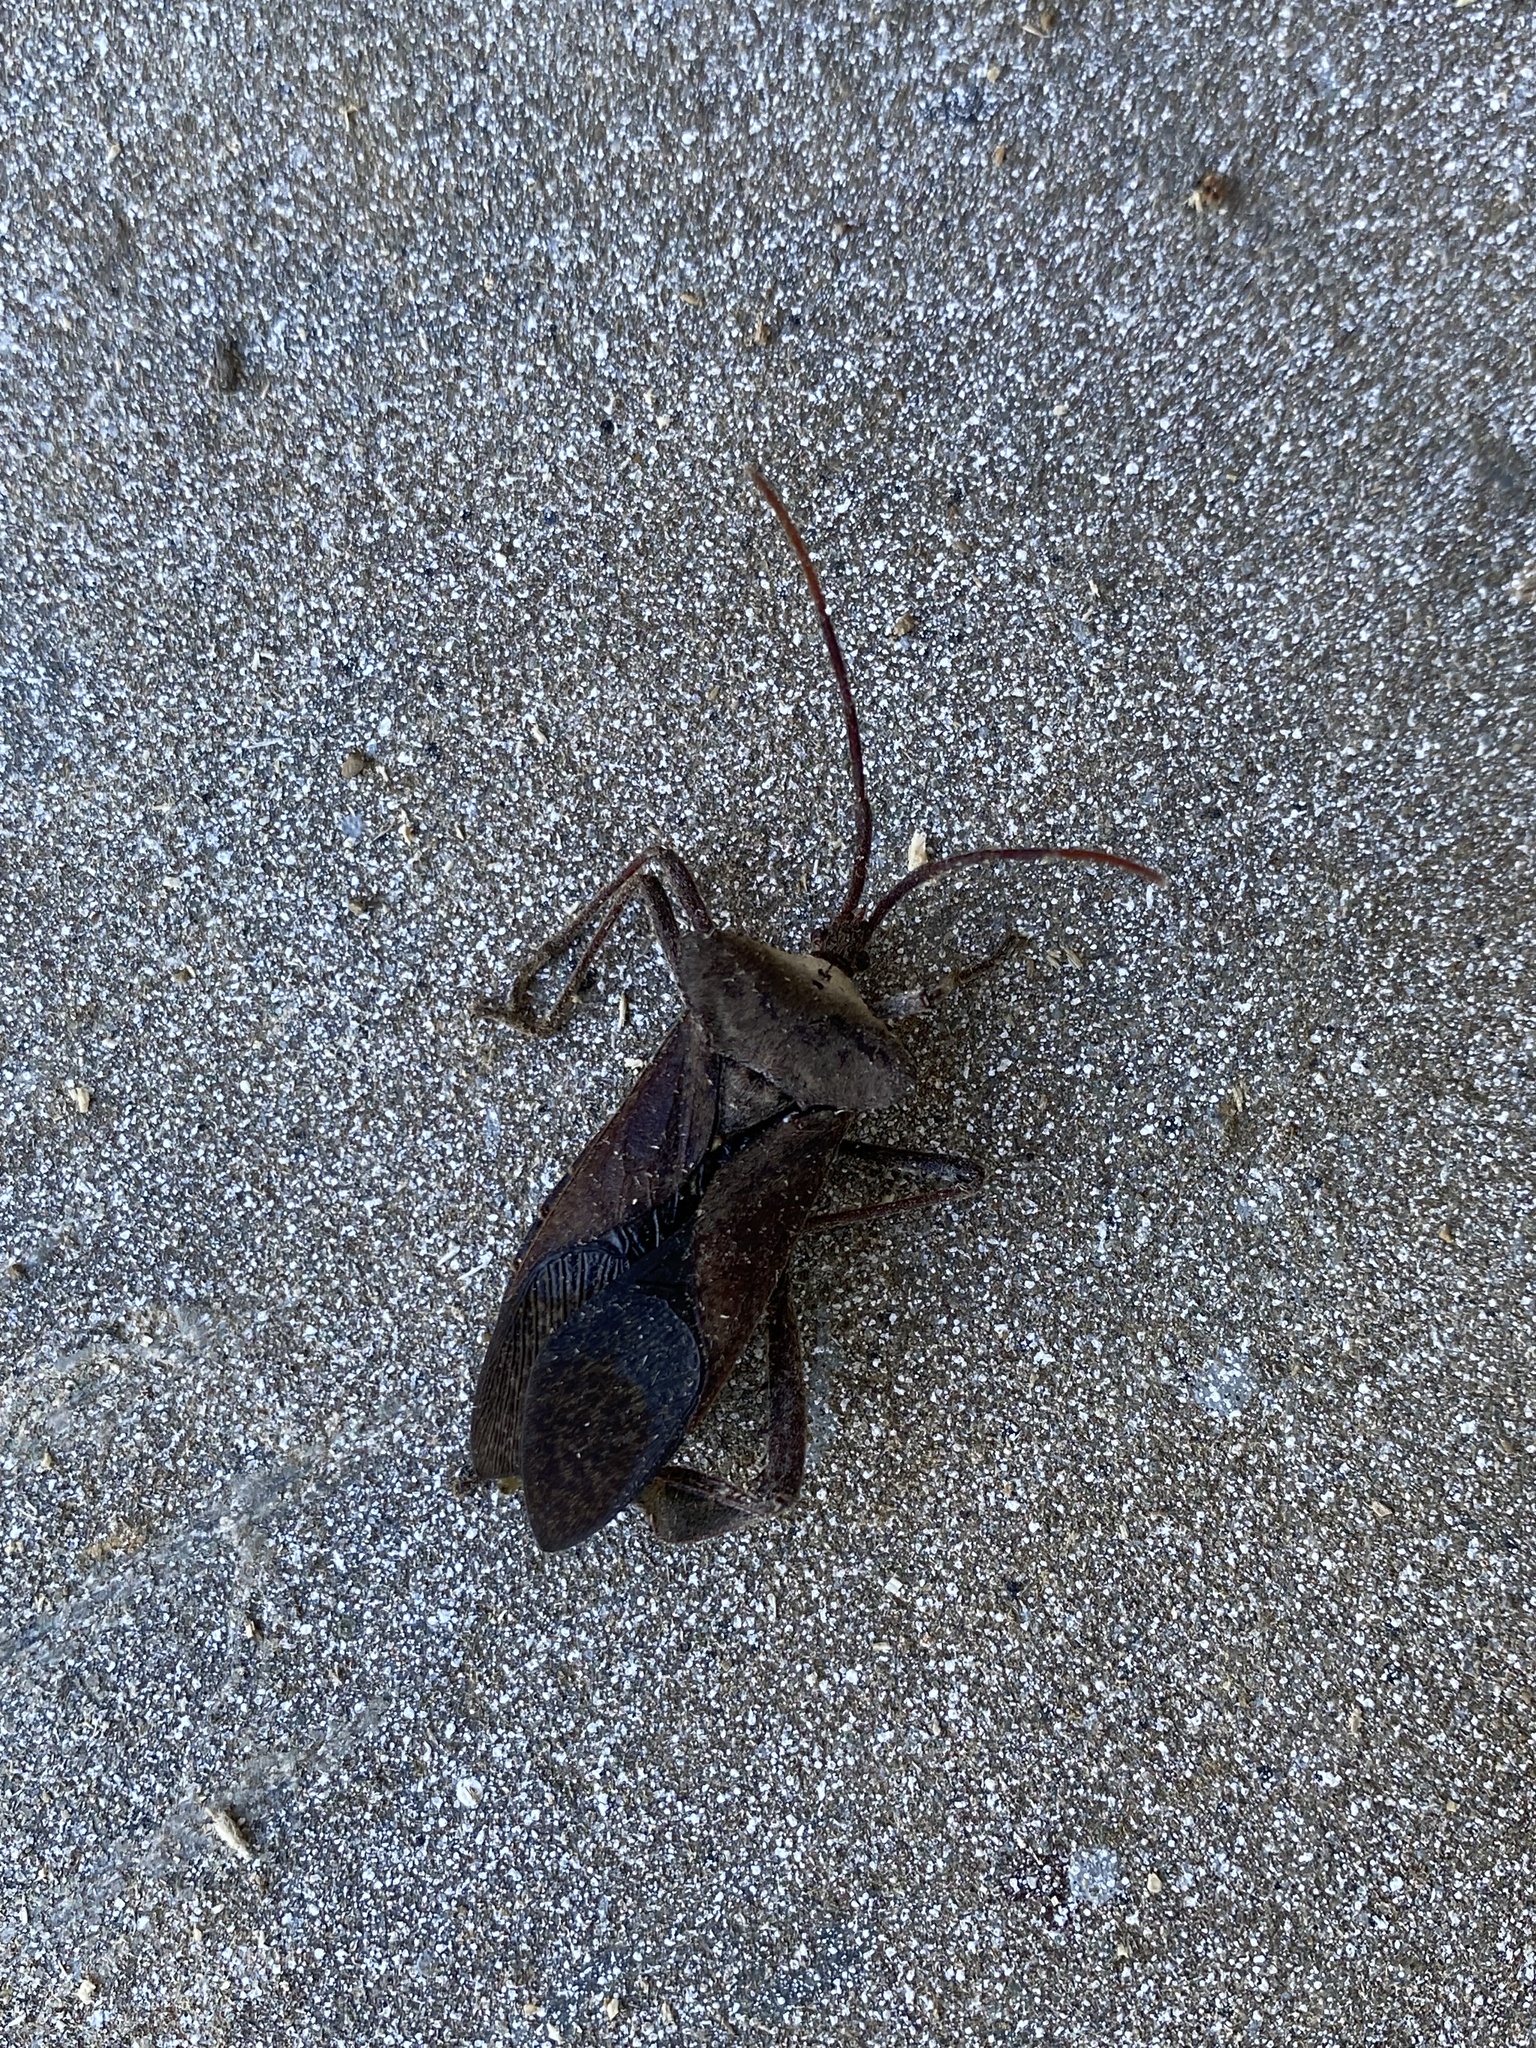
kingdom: Animalia
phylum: Arthropoda
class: Insecta
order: Hemiptera
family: Coreidae
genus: Acanthocephala
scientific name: Acanthocephala declivis
